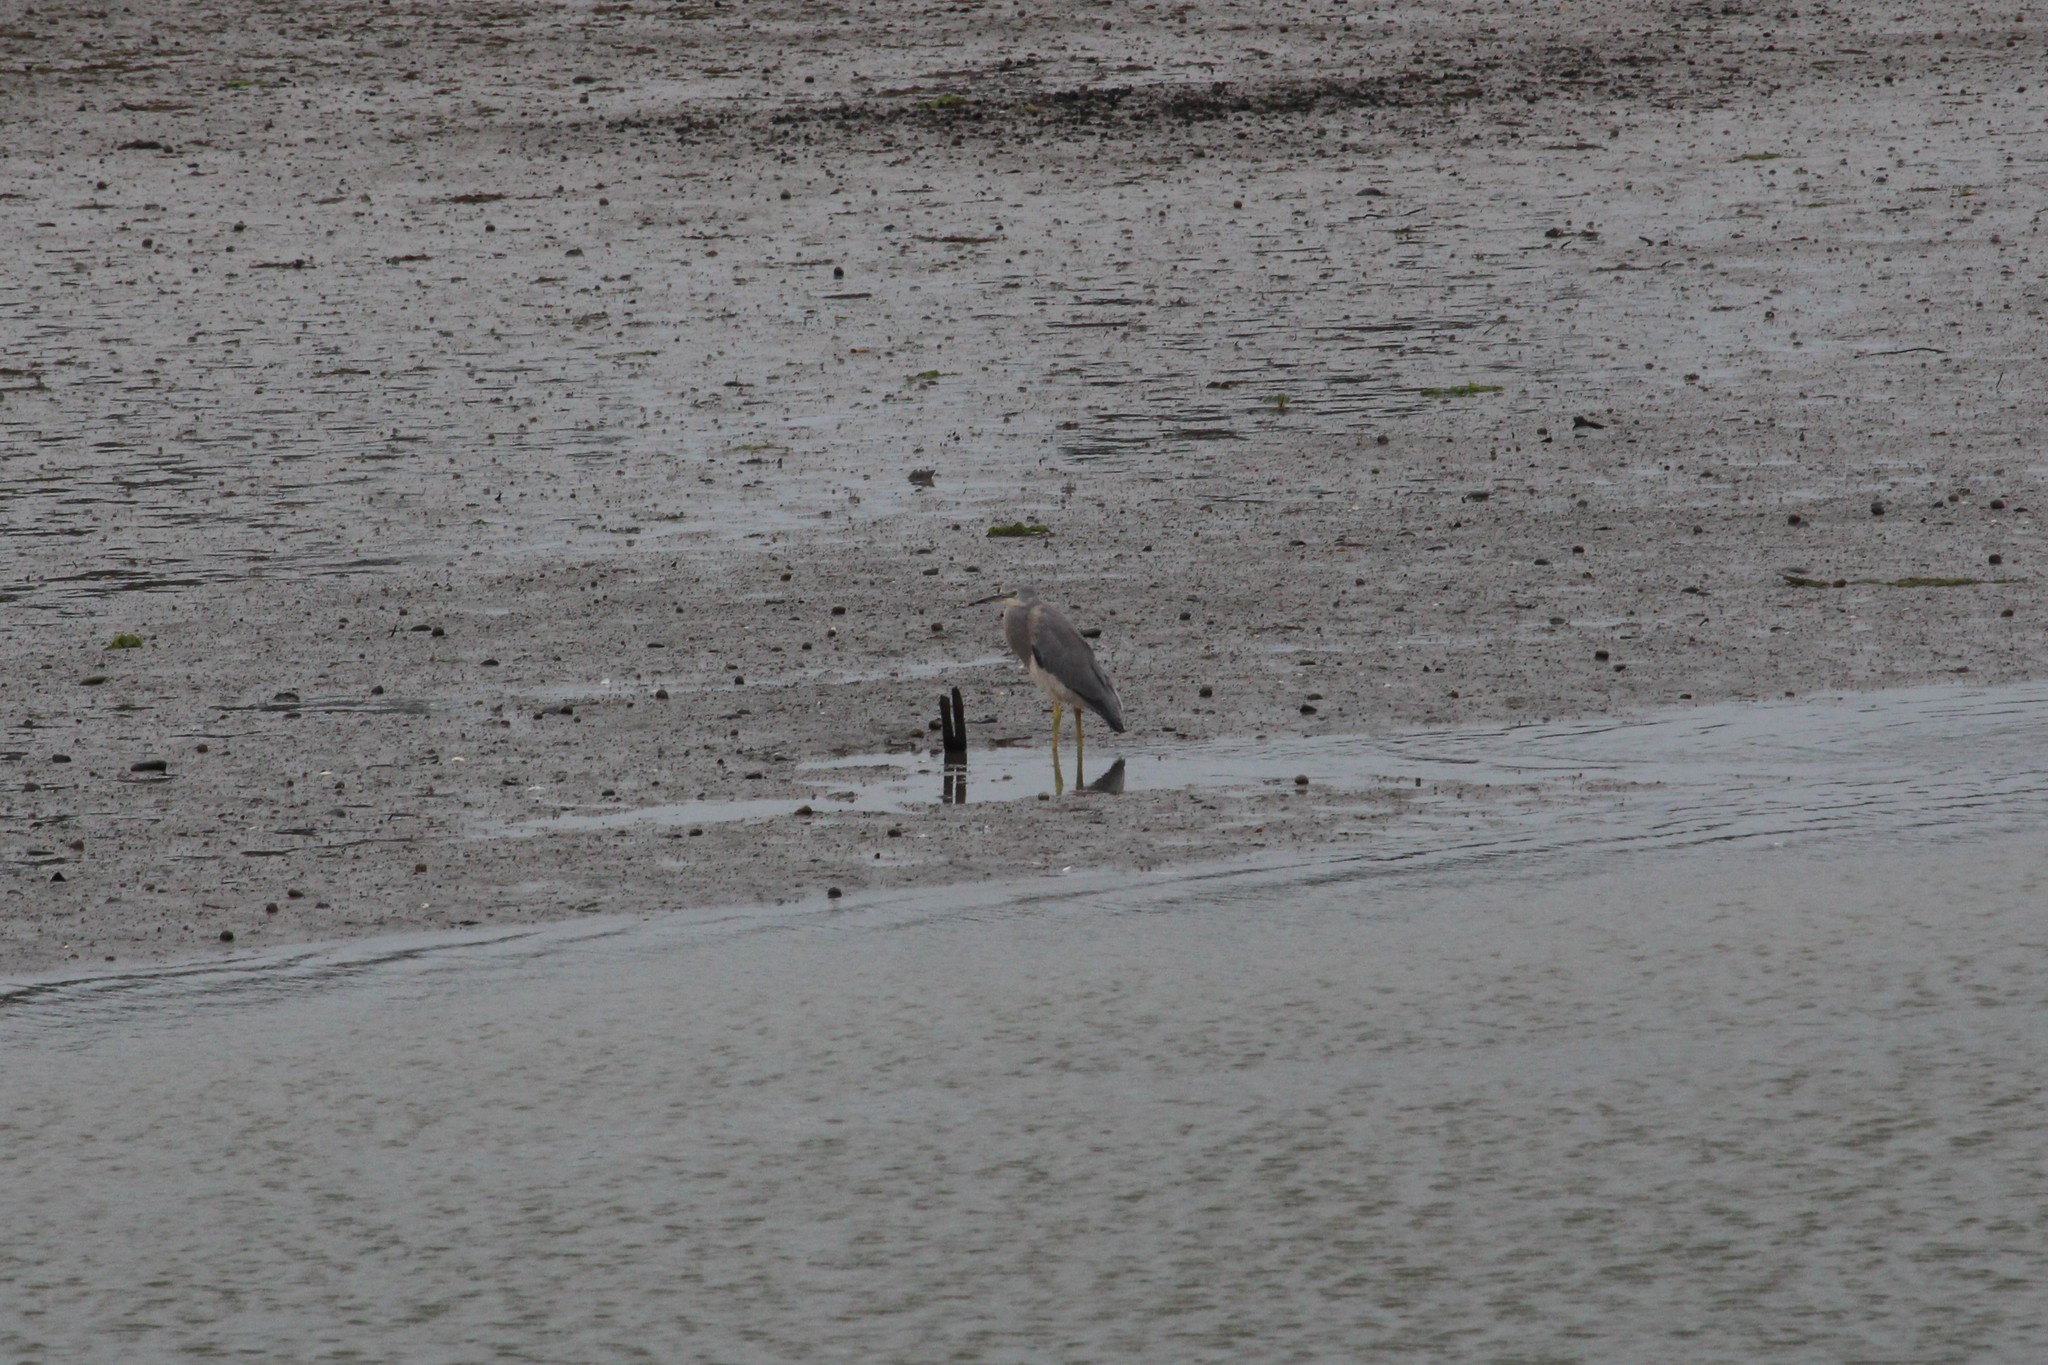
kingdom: Animalia
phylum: Chordata
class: Aves
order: Pelecaniformes
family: Ardeidae
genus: Egretta
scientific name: Egretta novaehollandiae
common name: White-faced heron
